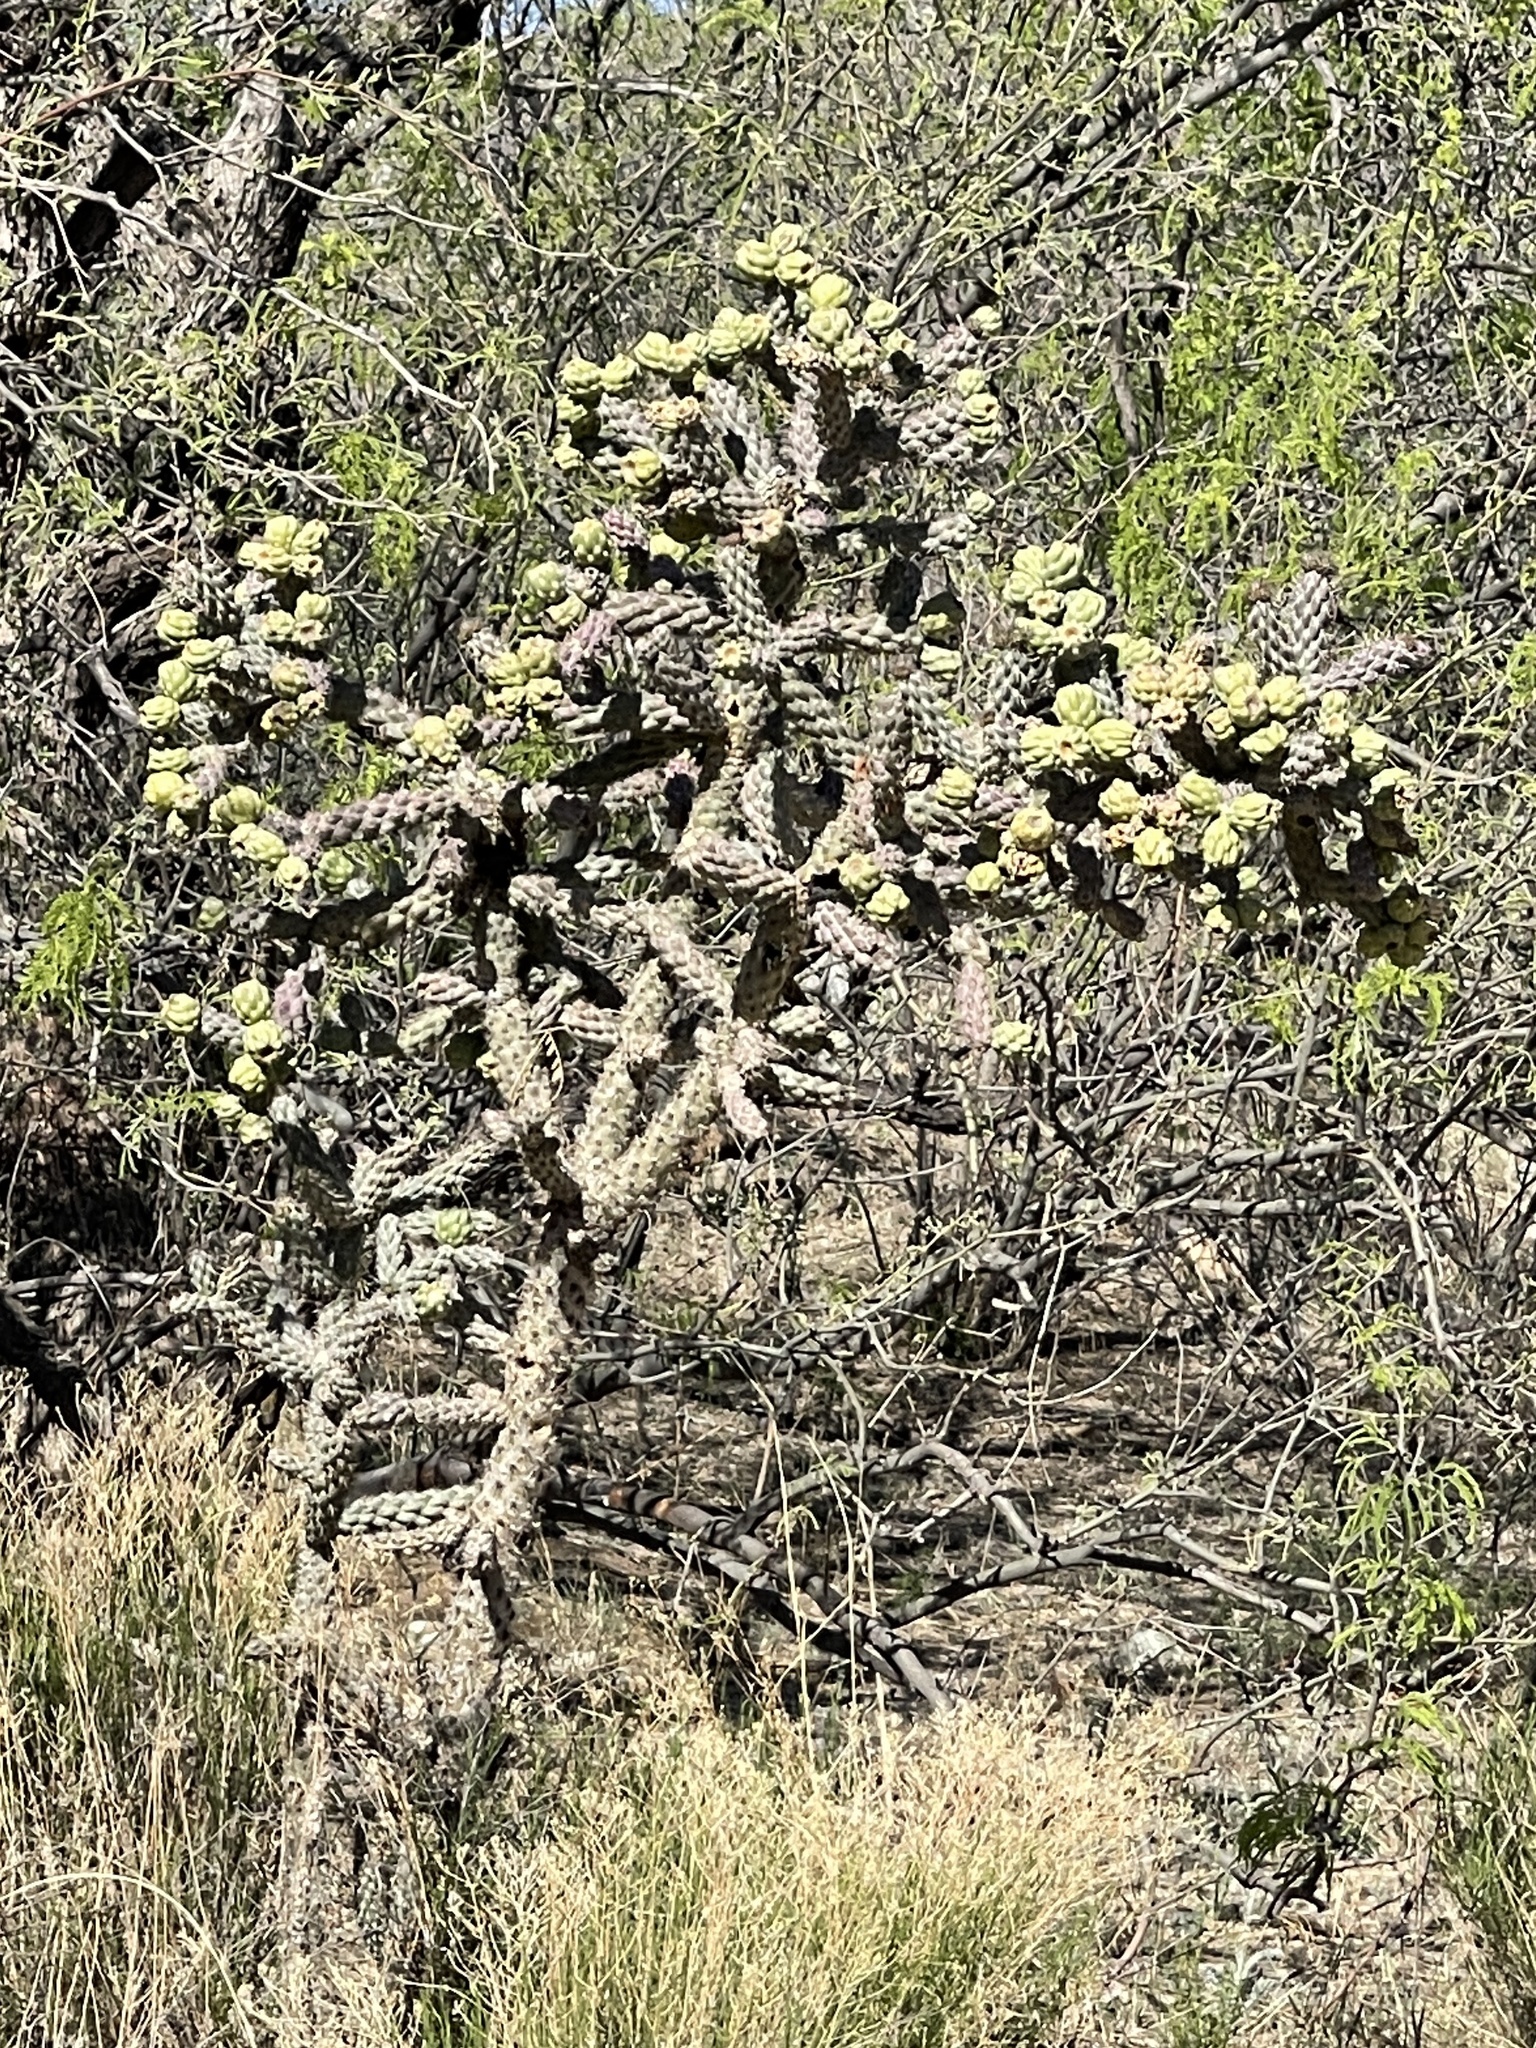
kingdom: Plantae
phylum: Tracheophyta
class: Magnoliopsida
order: Caryophyllales
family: Cactaceae
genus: Cylindropuntia
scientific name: Cylindropuntia imbricata
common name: Candelabrum cactus
